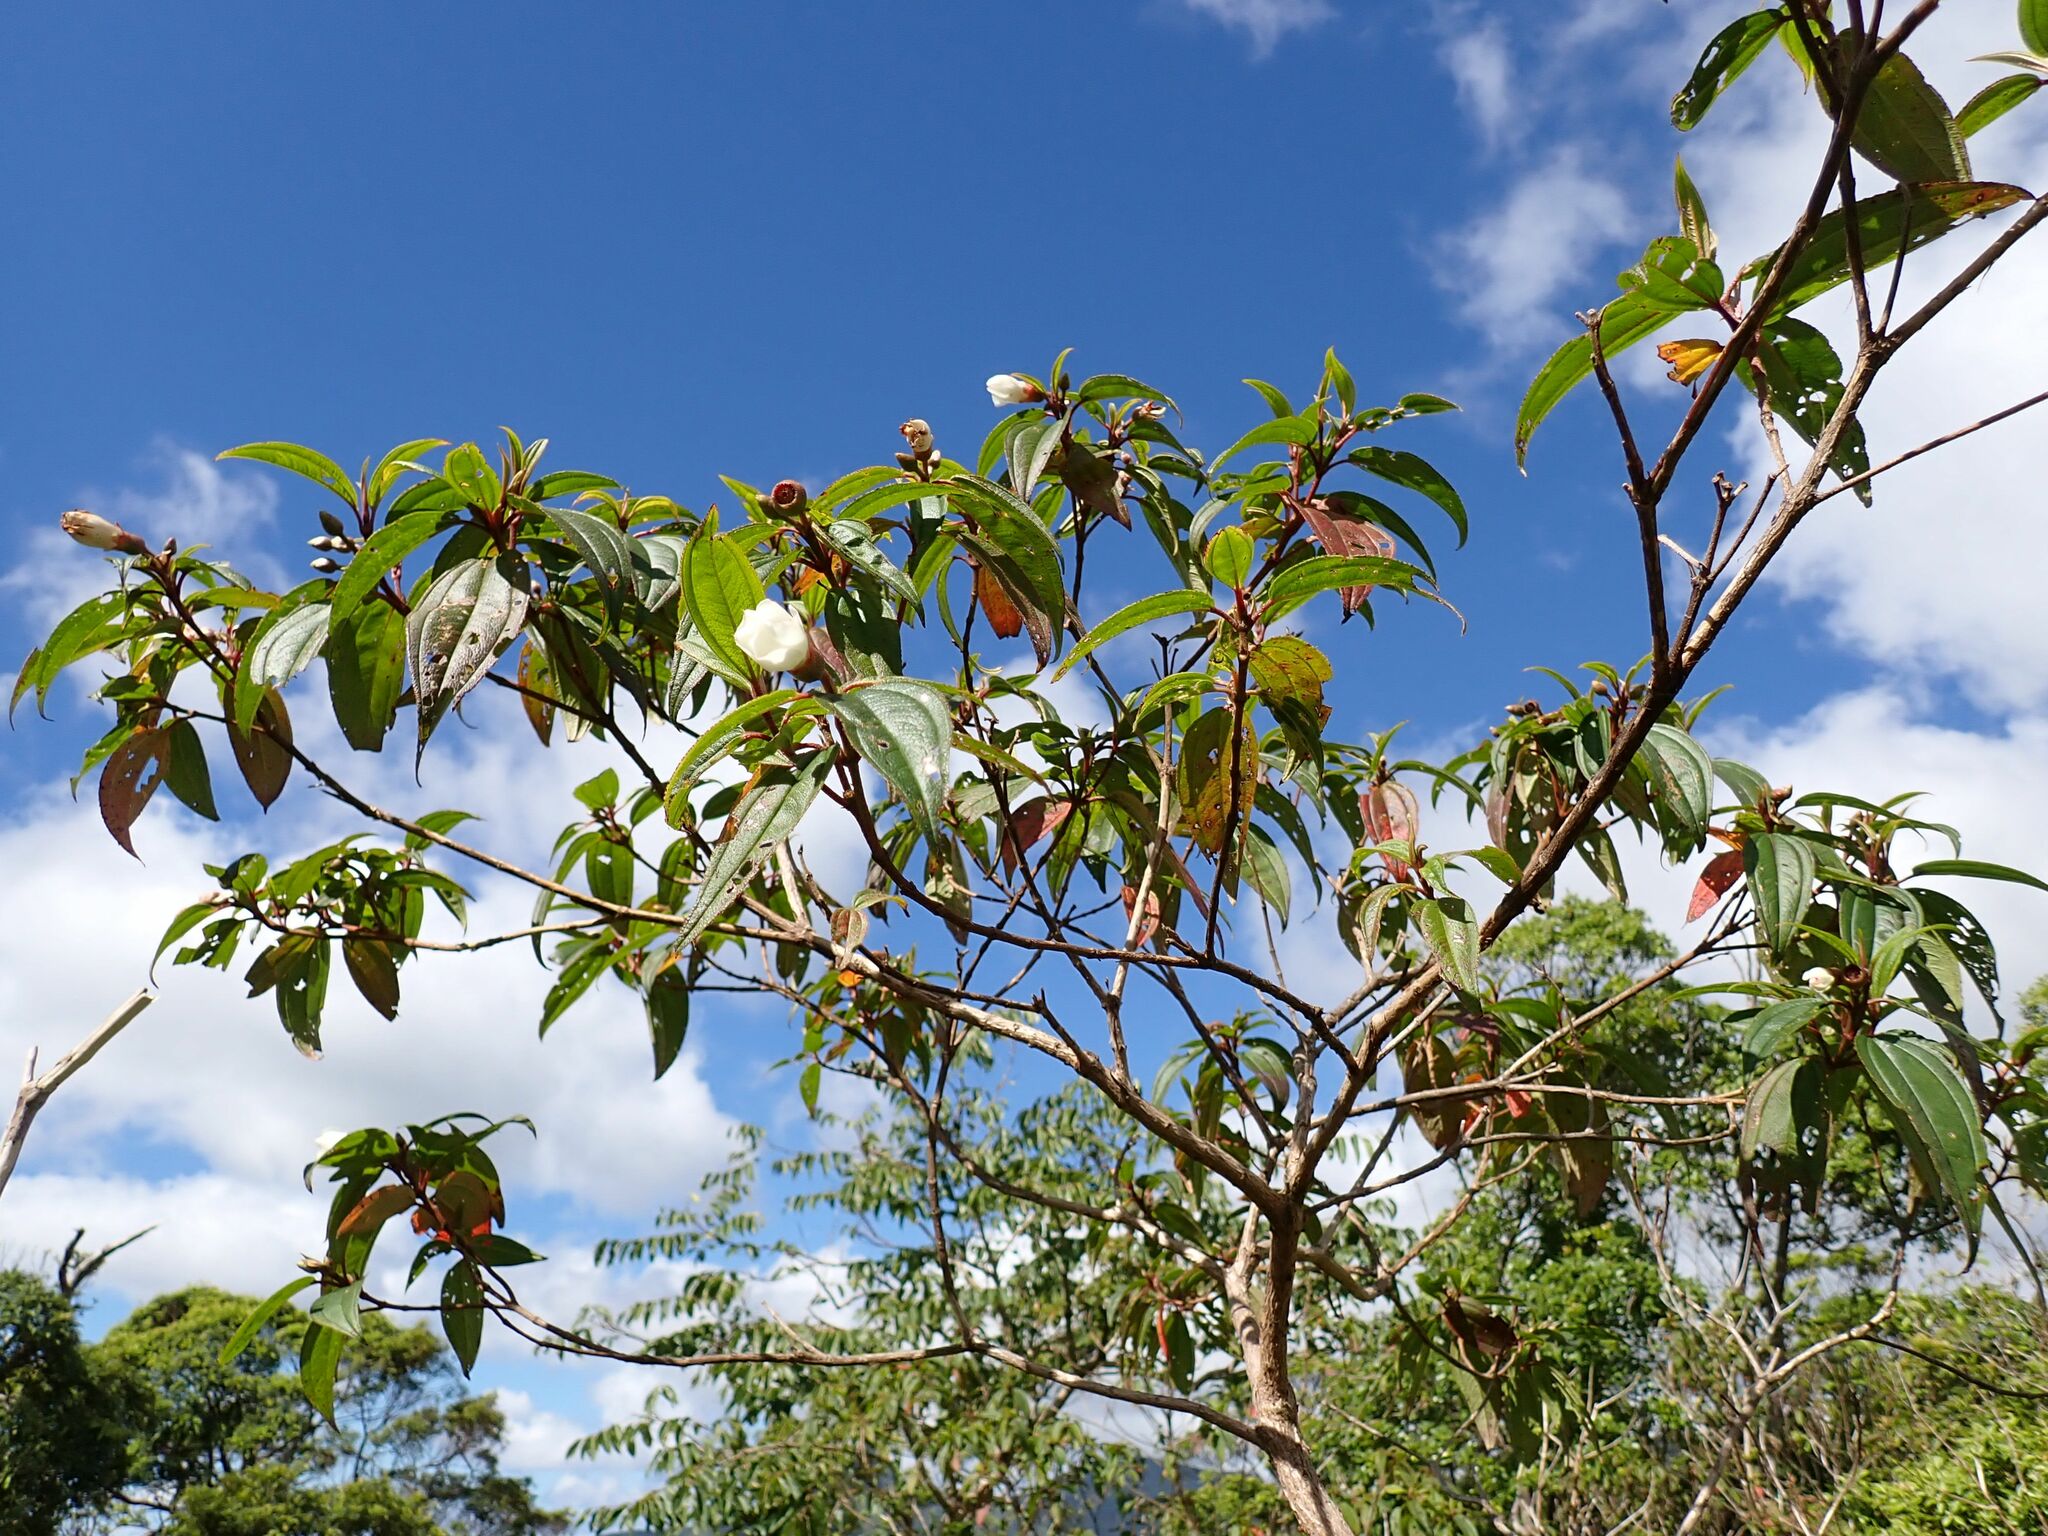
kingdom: Plantae
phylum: Tracheophyta
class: Magnoliopsida
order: Myrtales
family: Melastomataceae
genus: Melastoma
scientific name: Melastoma denticulatum
